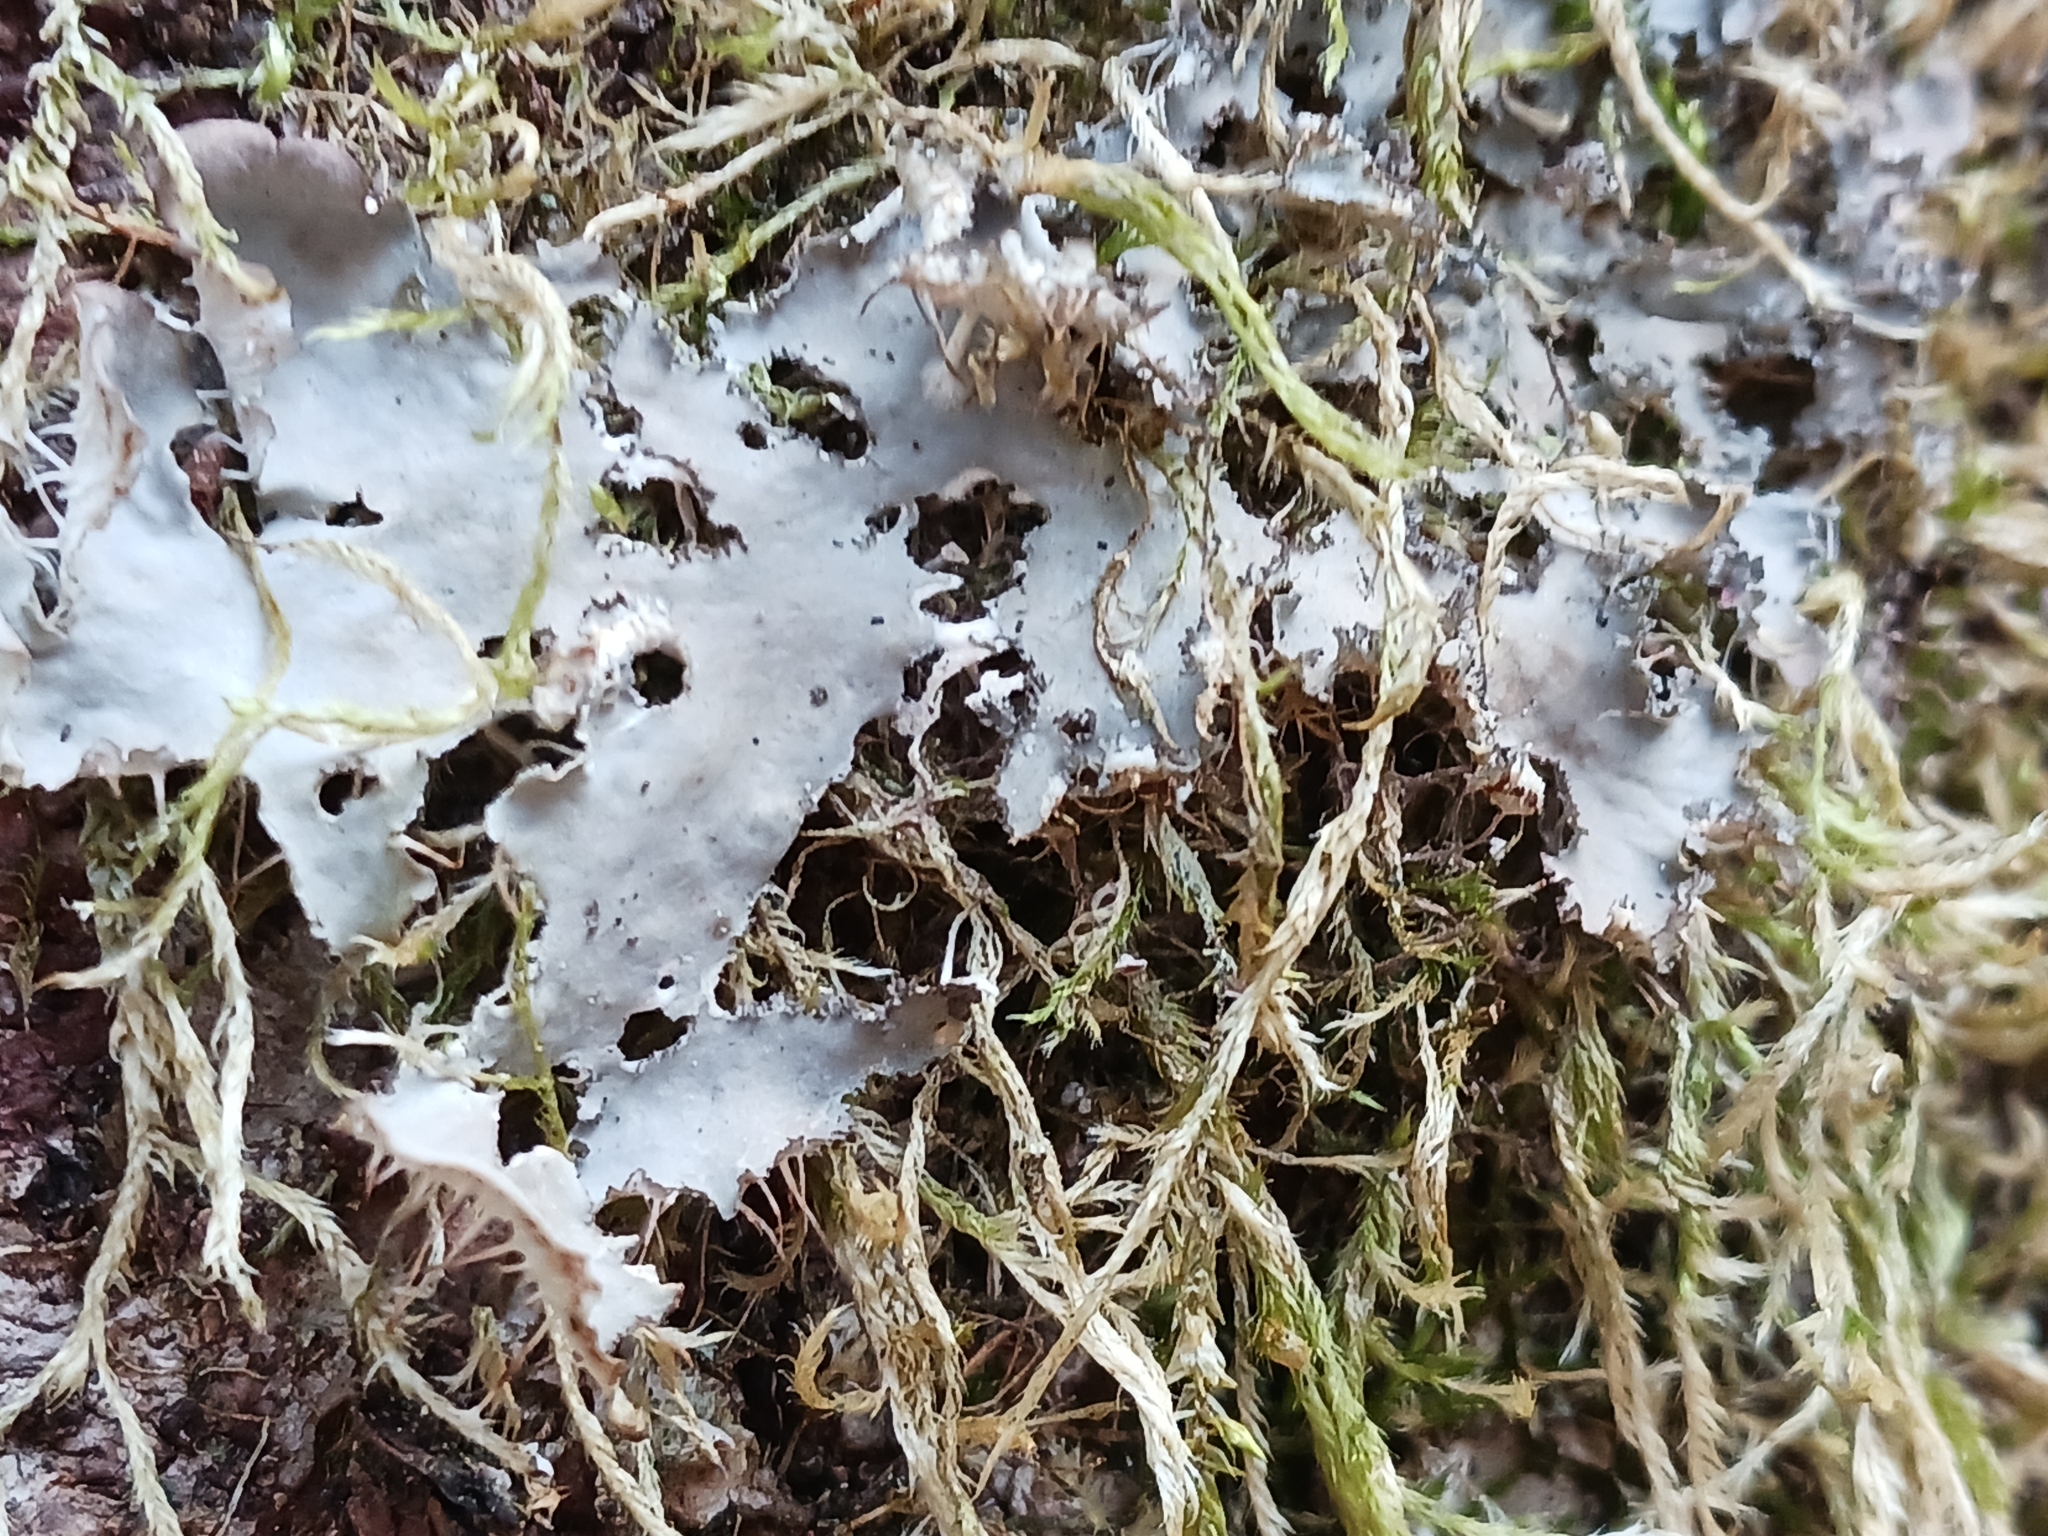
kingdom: Fungi
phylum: Ascomycota
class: Lecanoromycetes
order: Peltigerales
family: Peltigeraceae
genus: Peltigera
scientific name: Peltigera praetextata
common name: Scaly dog-lichen
